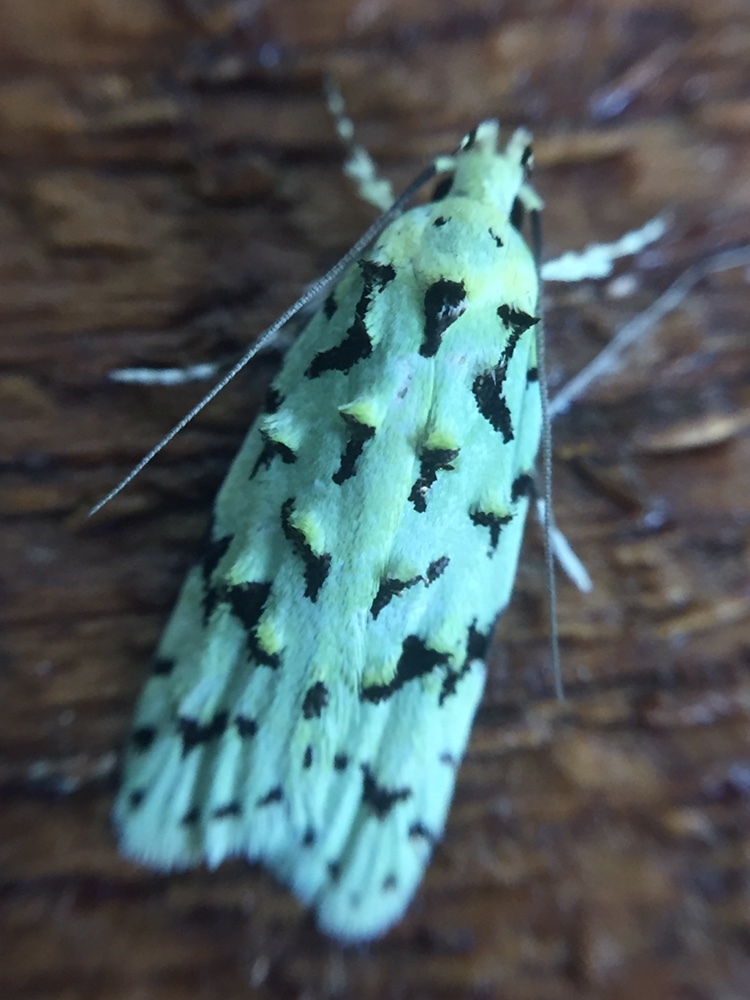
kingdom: Animalia
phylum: Arthropoda
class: Insecta
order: Lepidoptera
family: Oecophoridae
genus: Izatha
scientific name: Izatha peroneanella
